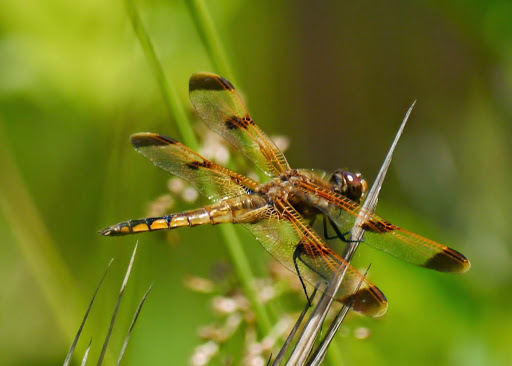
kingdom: Animalia
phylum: Arthropoda
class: Insecta
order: Odonata
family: Libellulidae
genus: Libellula
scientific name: Libellula semifasciata
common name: Painted skimmer
